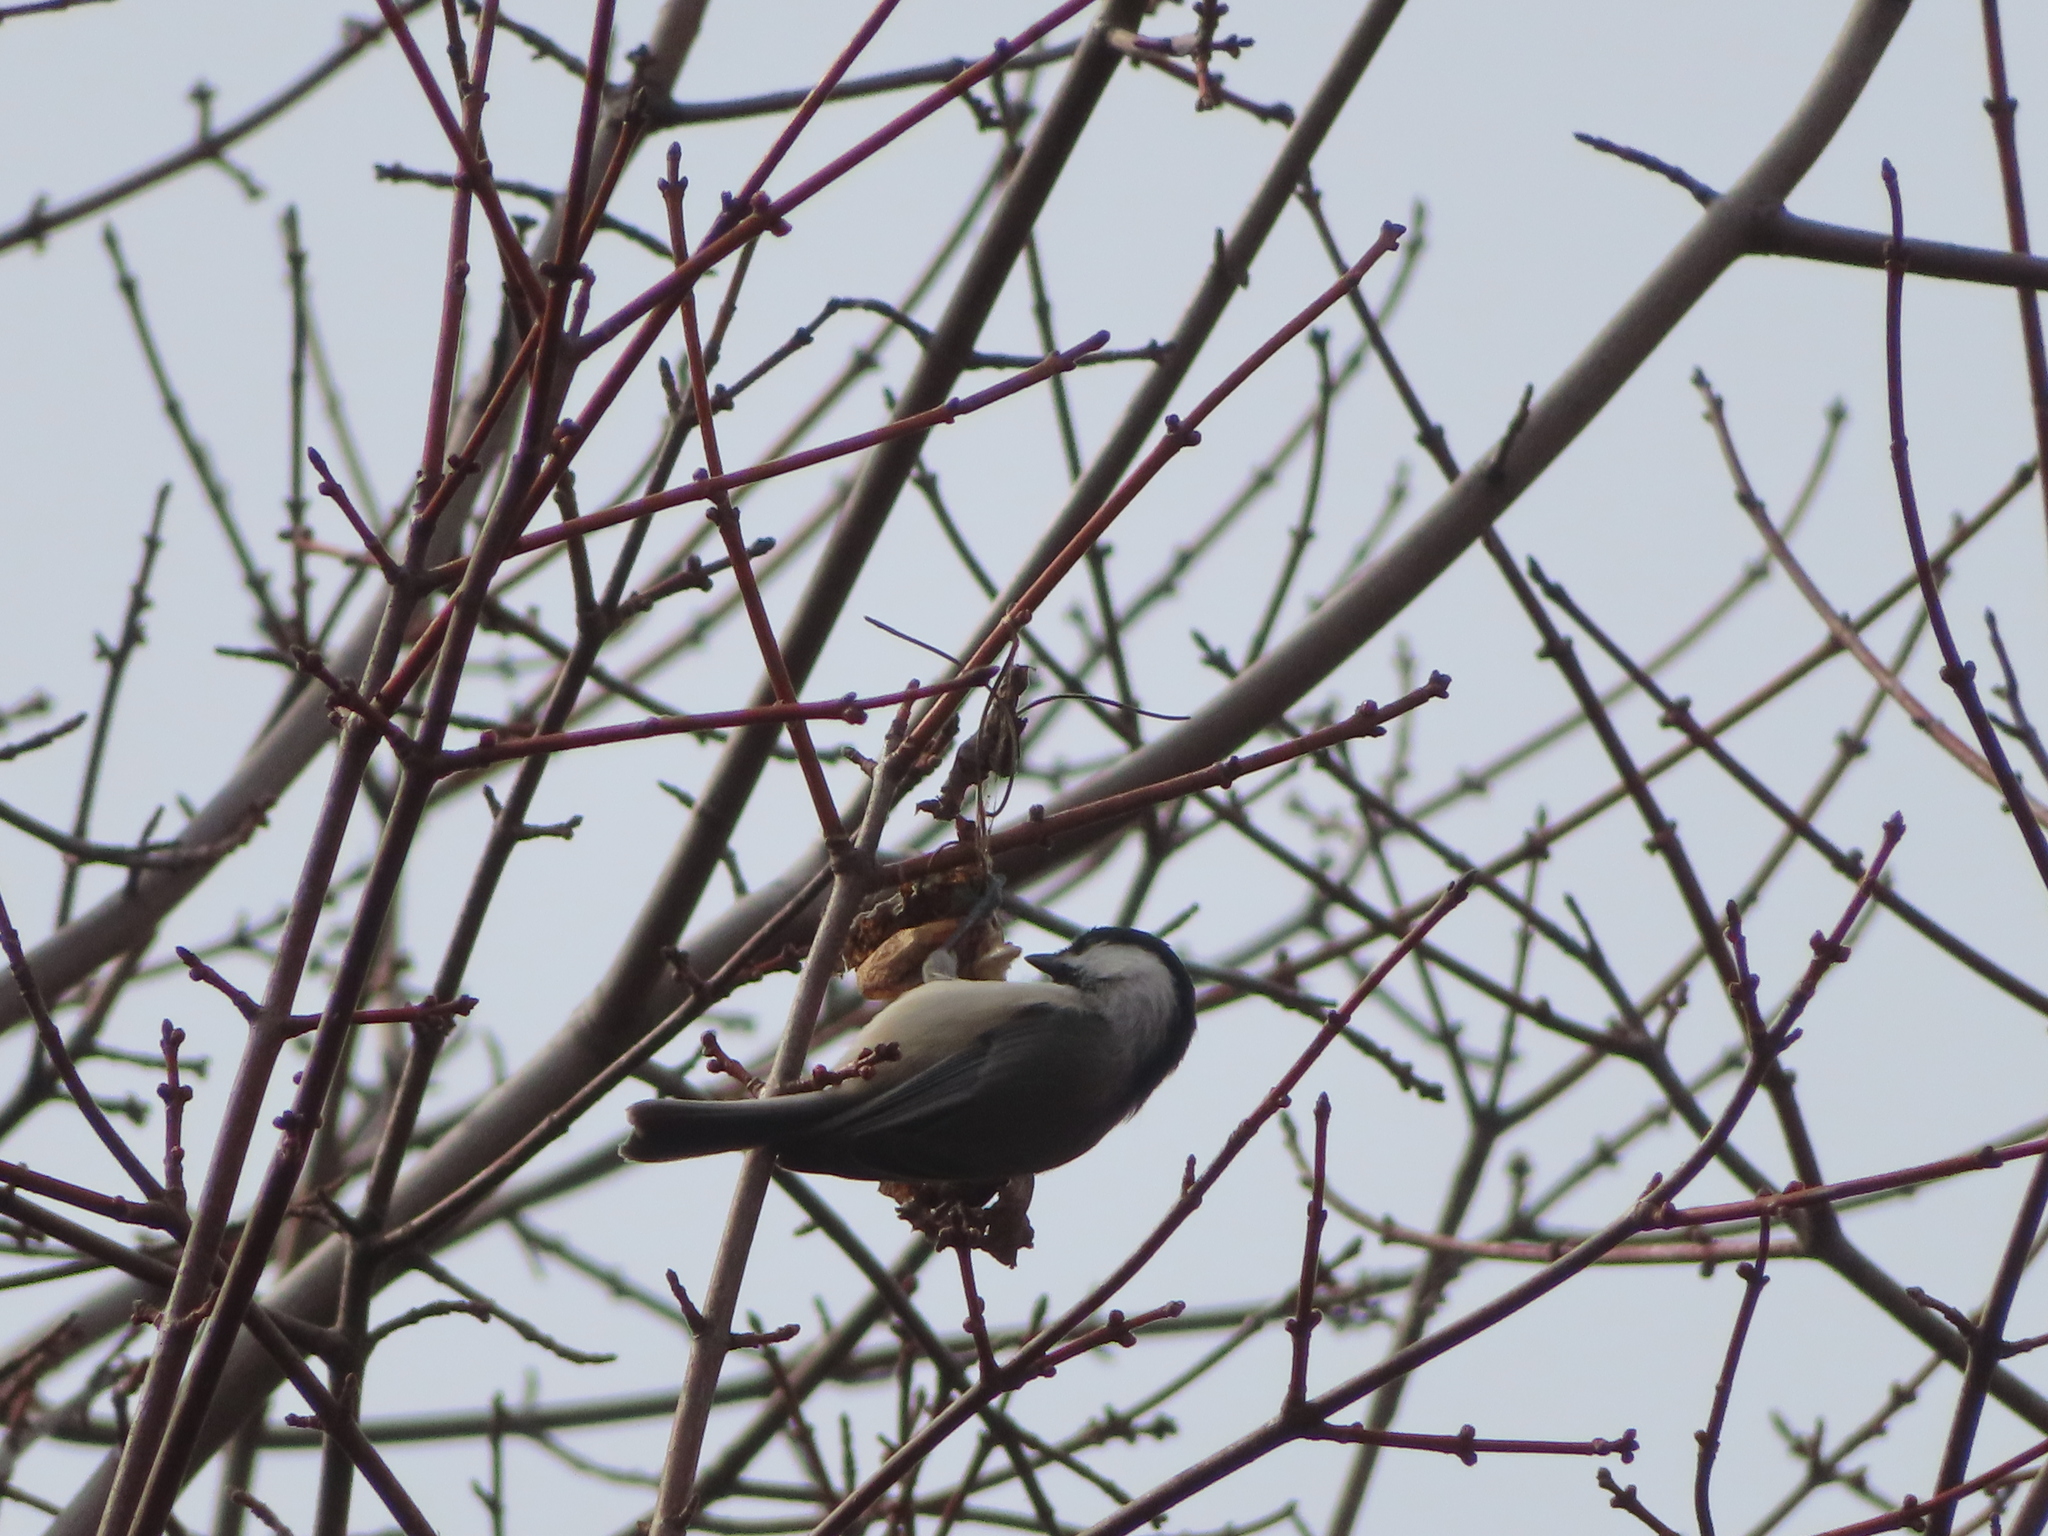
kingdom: Animalia
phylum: Chordata
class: Aves
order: Passeriformes
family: Paridae
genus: Poecile
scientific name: Poecile carolinensis
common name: Carolina chickadee
